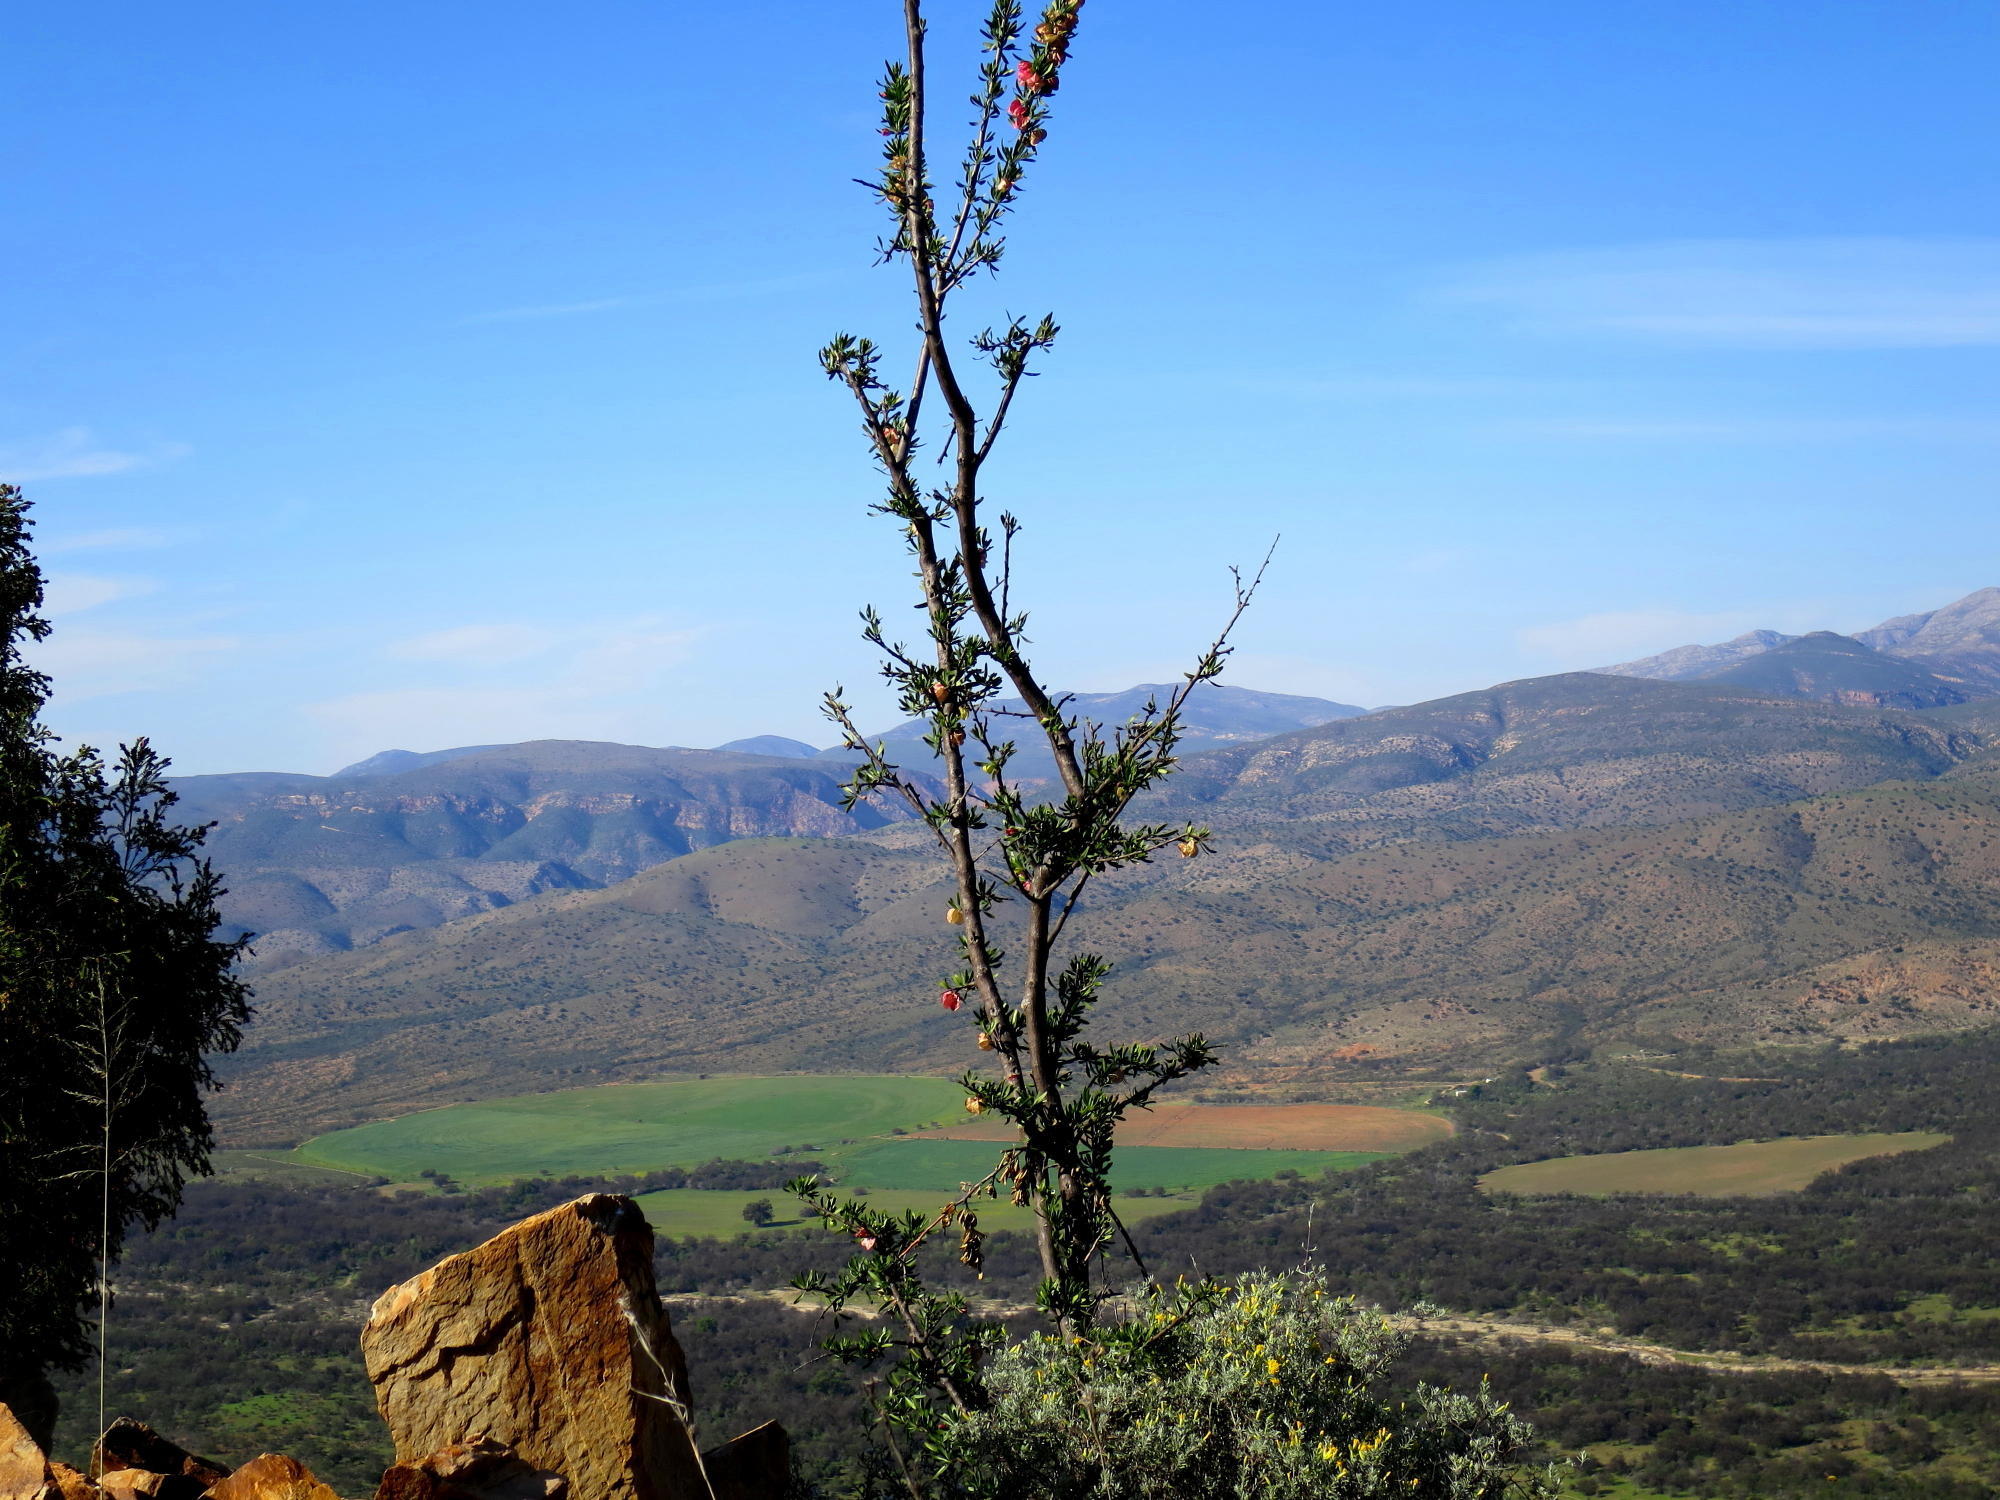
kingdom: Plantae
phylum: Tracheophyta
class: Magnoliopsida
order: Sapindales
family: Meliaceae
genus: Nymania
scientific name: Nymania capensis
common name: Chinese lantern tree
